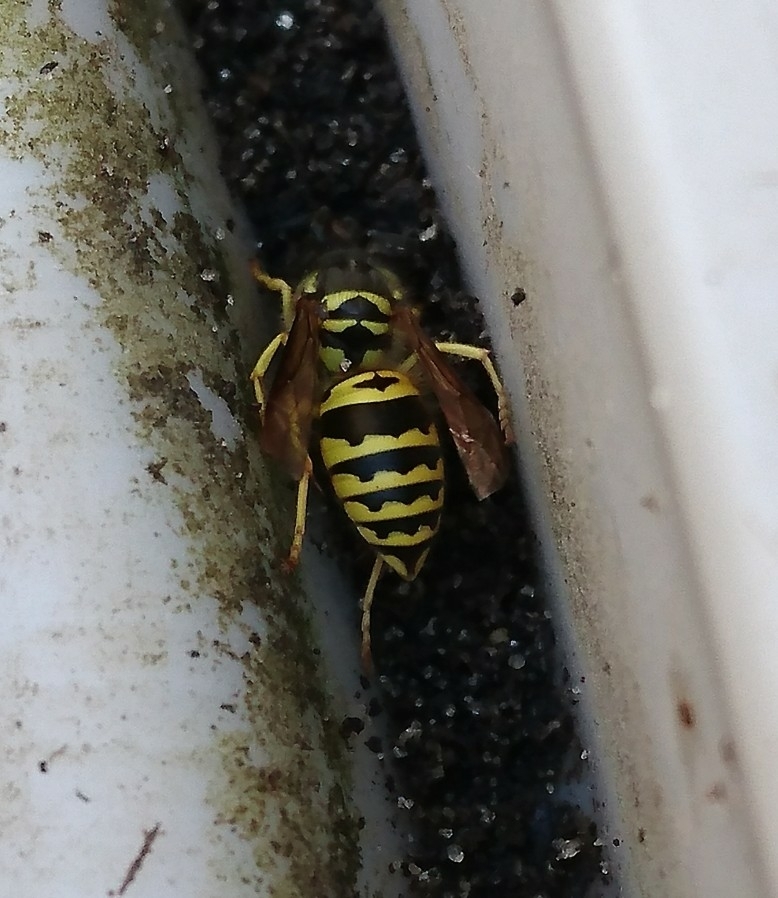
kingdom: Animalia
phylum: Arthropoda
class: Insecta
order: Hymenoptera
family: Vespidae
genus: Vespula
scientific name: Vespula maculifrons
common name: Eastern yellowjacket
